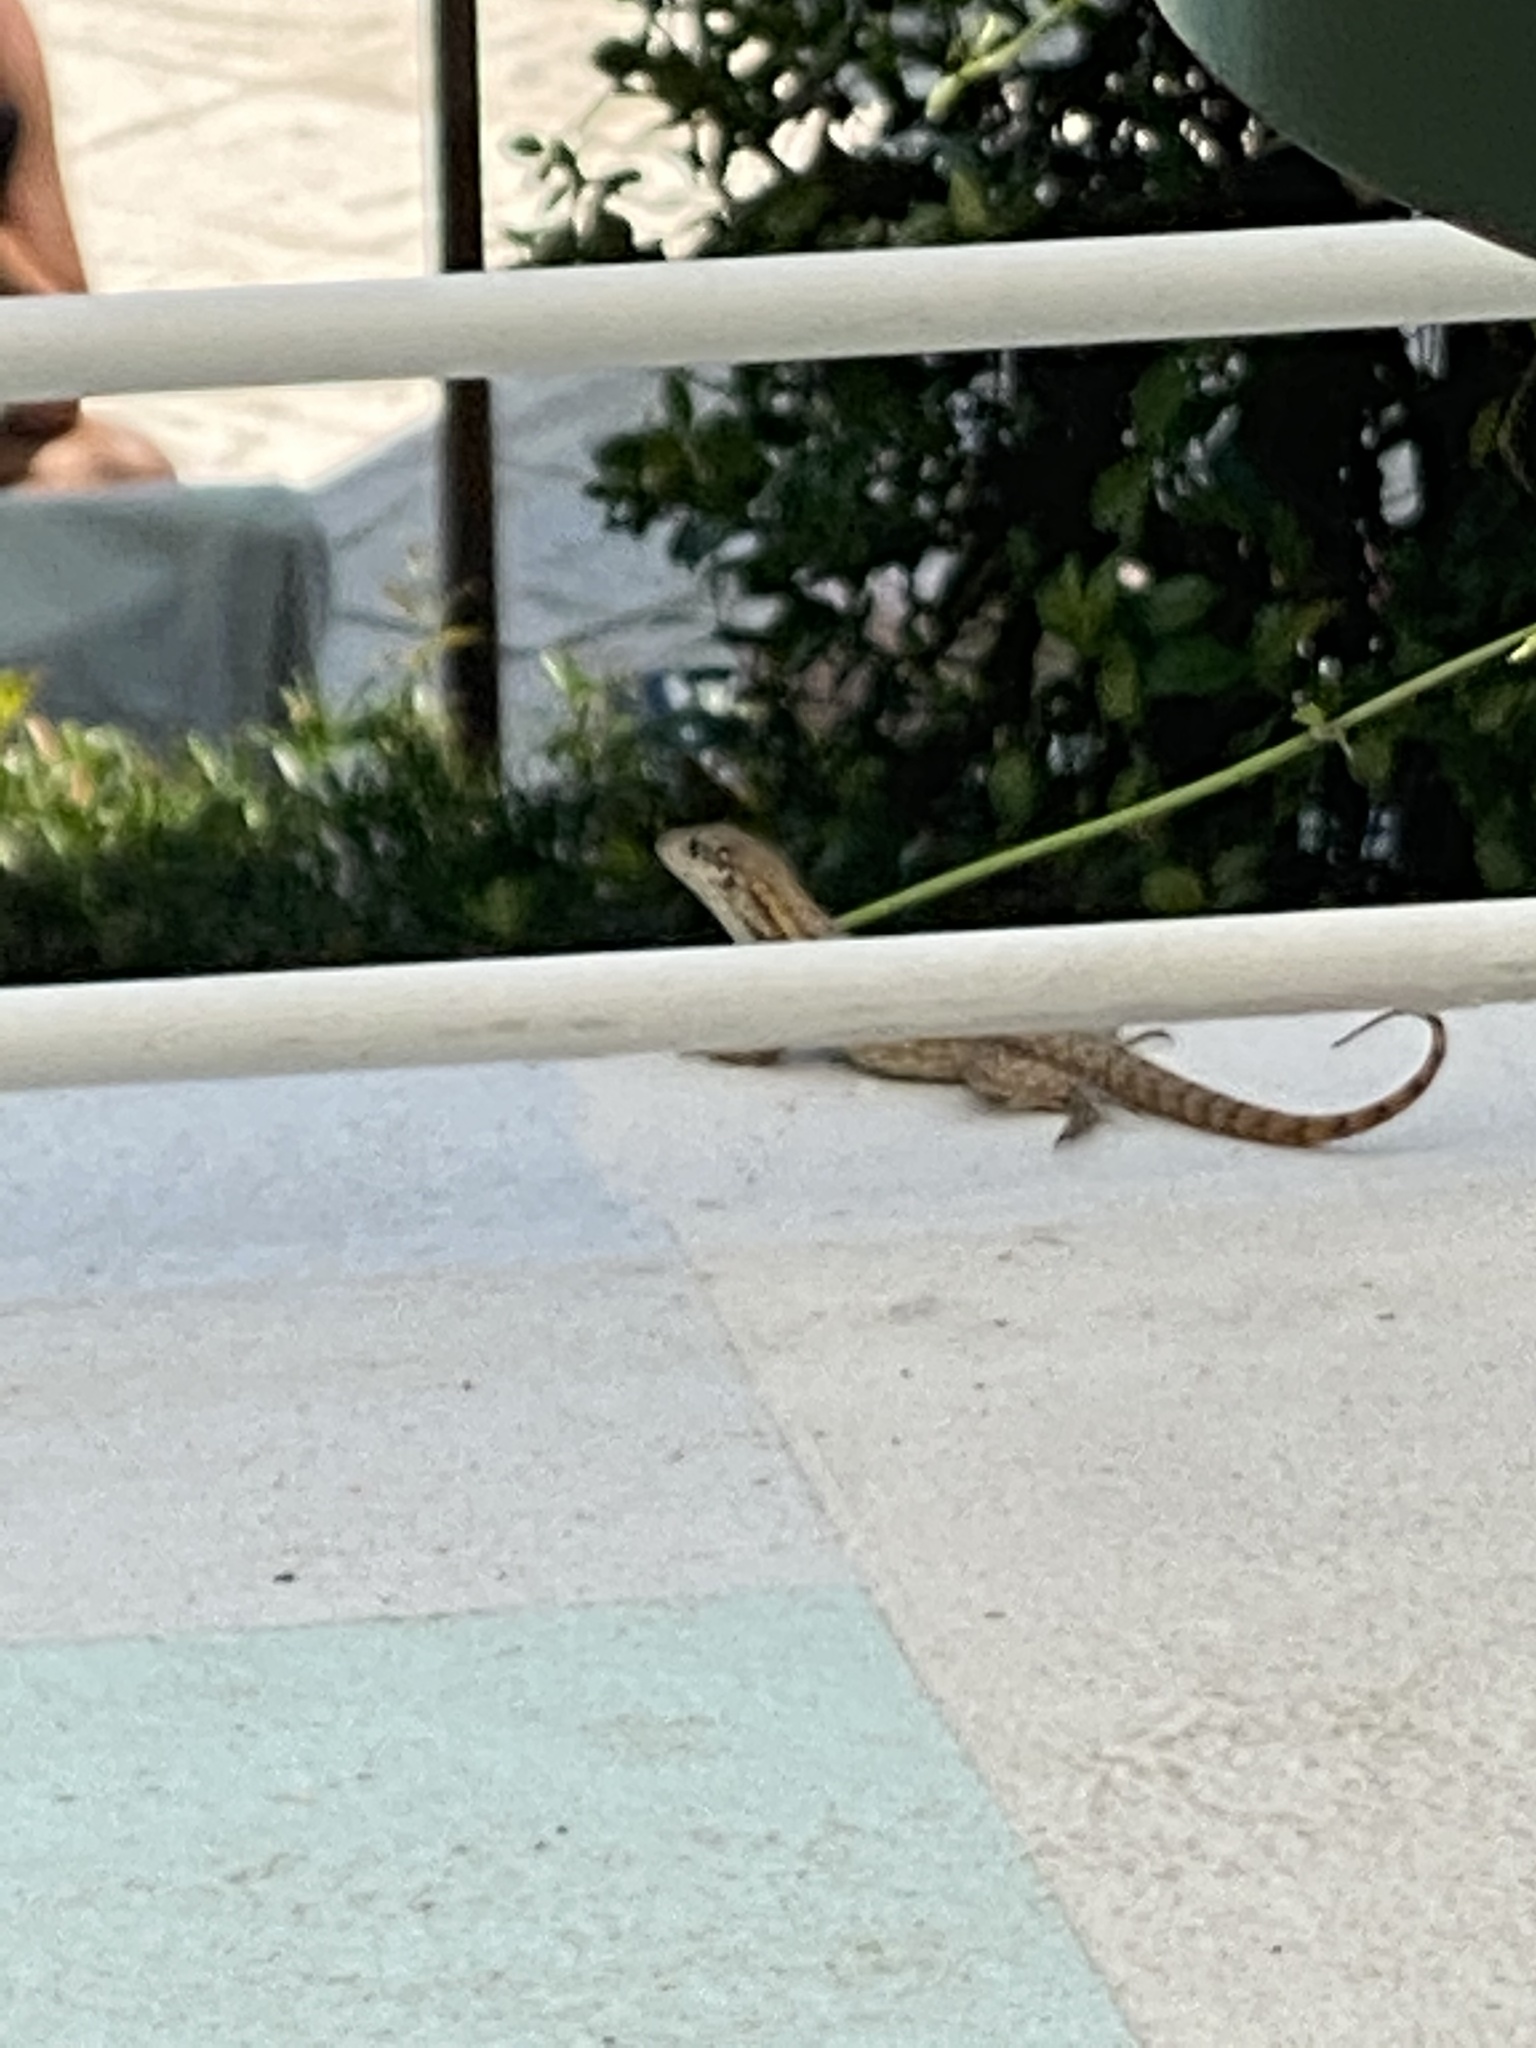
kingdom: Animalia
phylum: Chordata
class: Squamata
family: Leiocephalidae
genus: Leiocephalus
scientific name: Leiocephalus carinatus
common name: Northern curly-tailed lizard
